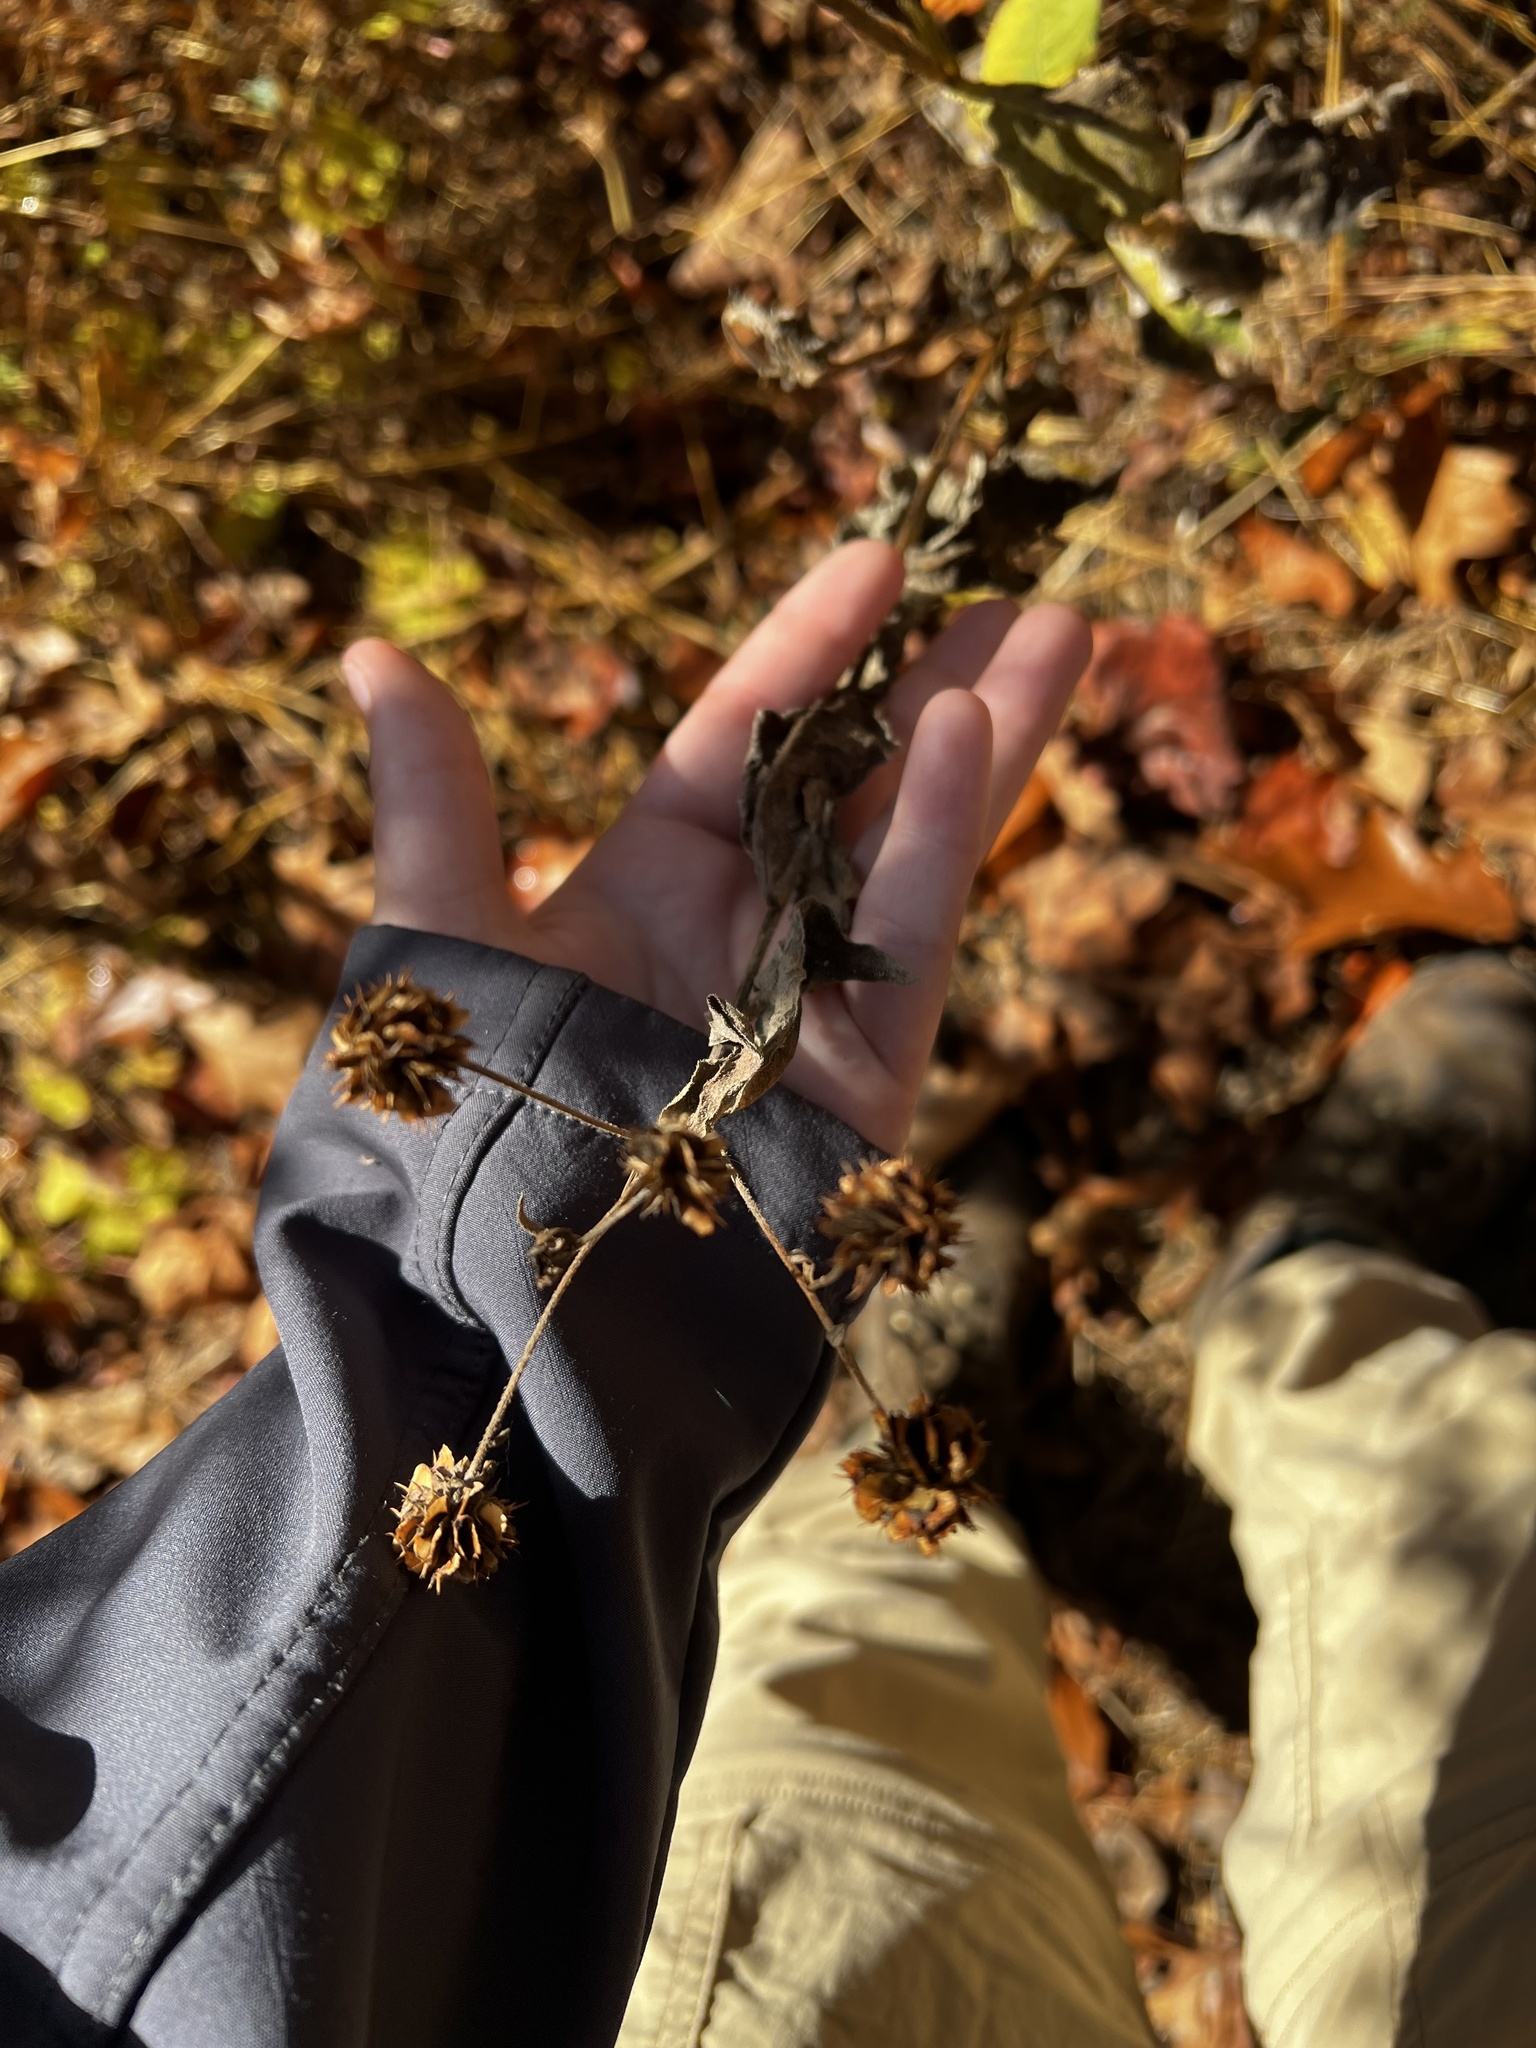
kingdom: Plantae
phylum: Tracheophyta
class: Magnoliopsida
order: Asterales
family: Asteraceae
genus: Verbesina
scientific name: Verbesina alternifolia
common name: Wingstem
